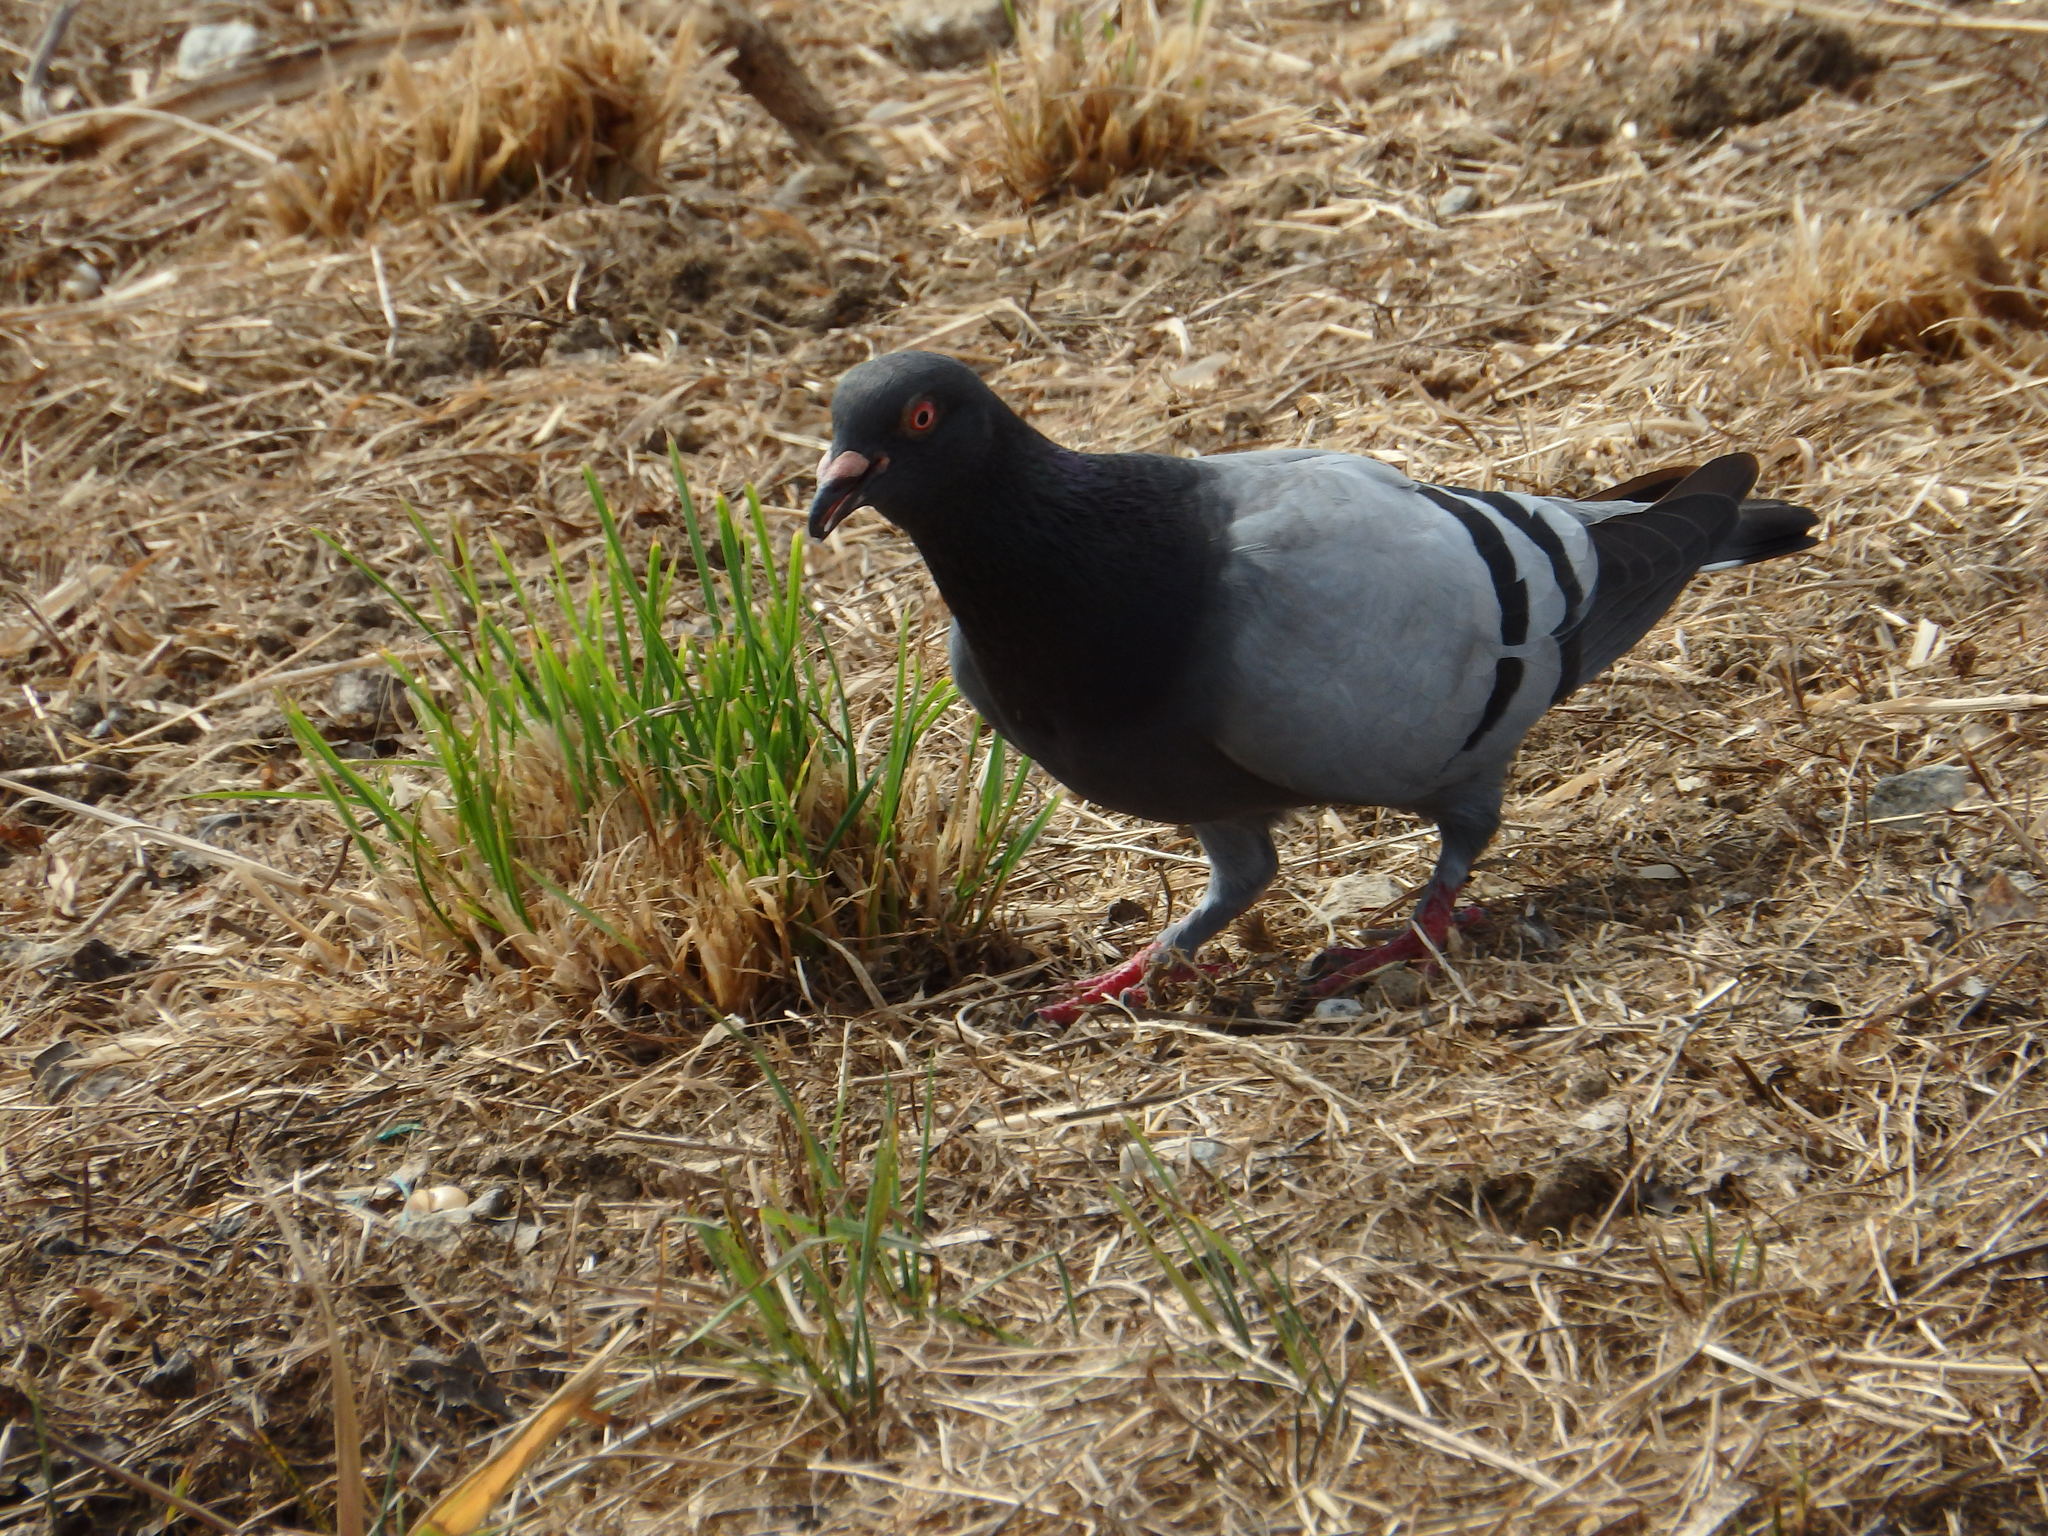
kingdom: Animalia
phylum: Chordata
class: Aves
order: Columbiformes
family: Columbidae
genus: Columba
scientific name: Columba livia
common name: Rock pigeon
